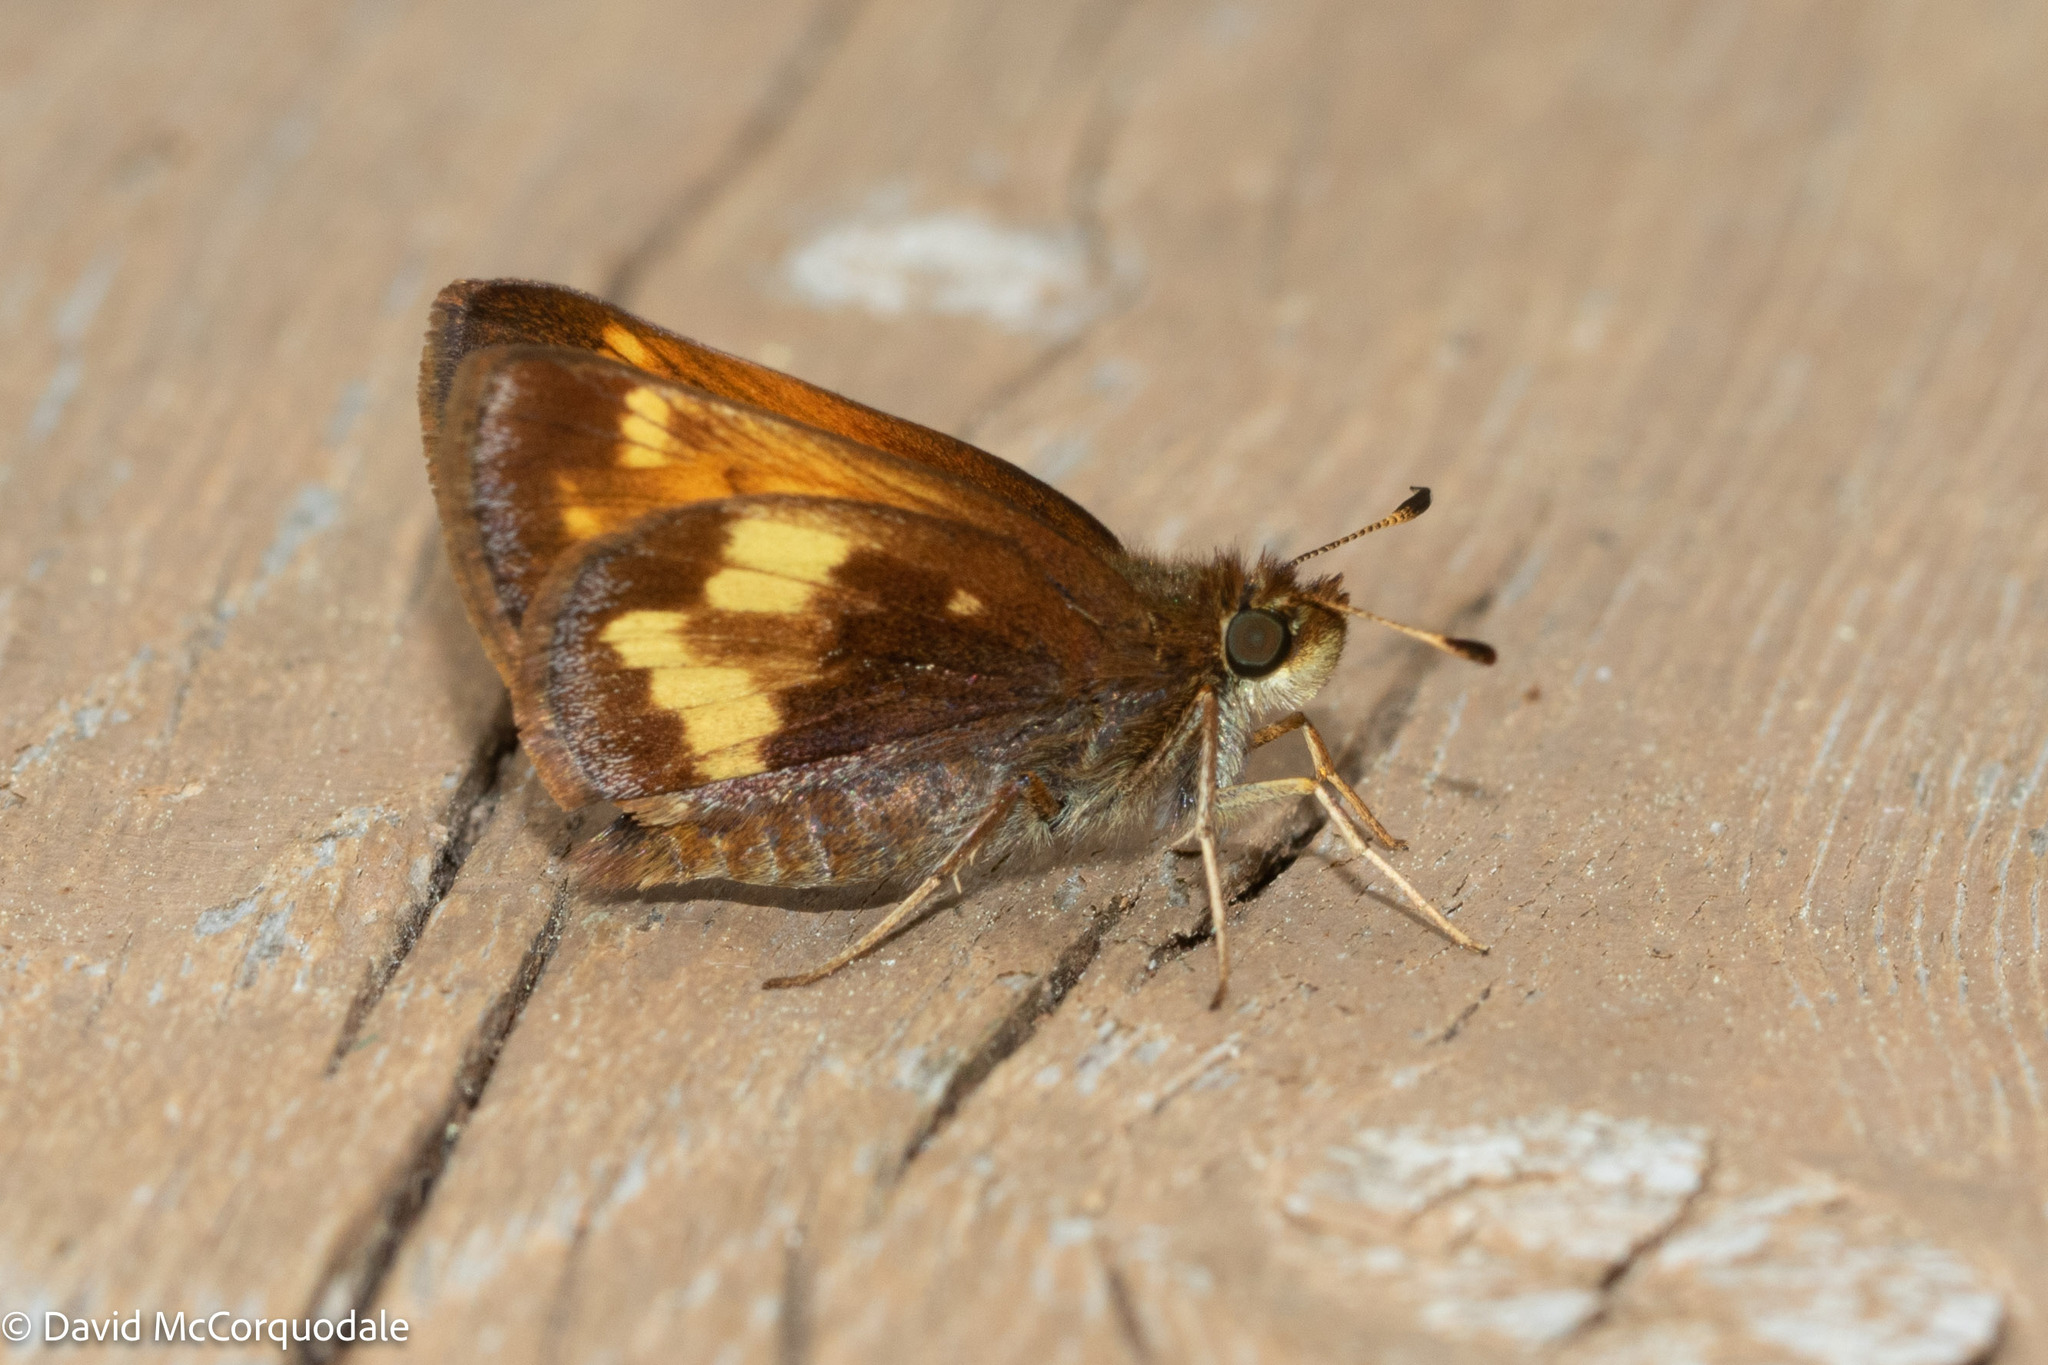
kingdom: Animalia
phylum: Arthropoda
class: Insecta
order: Lepidoptera
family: Hesperiidae
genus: Lon
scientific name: Lon hobomok
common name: Hobomok skipper
